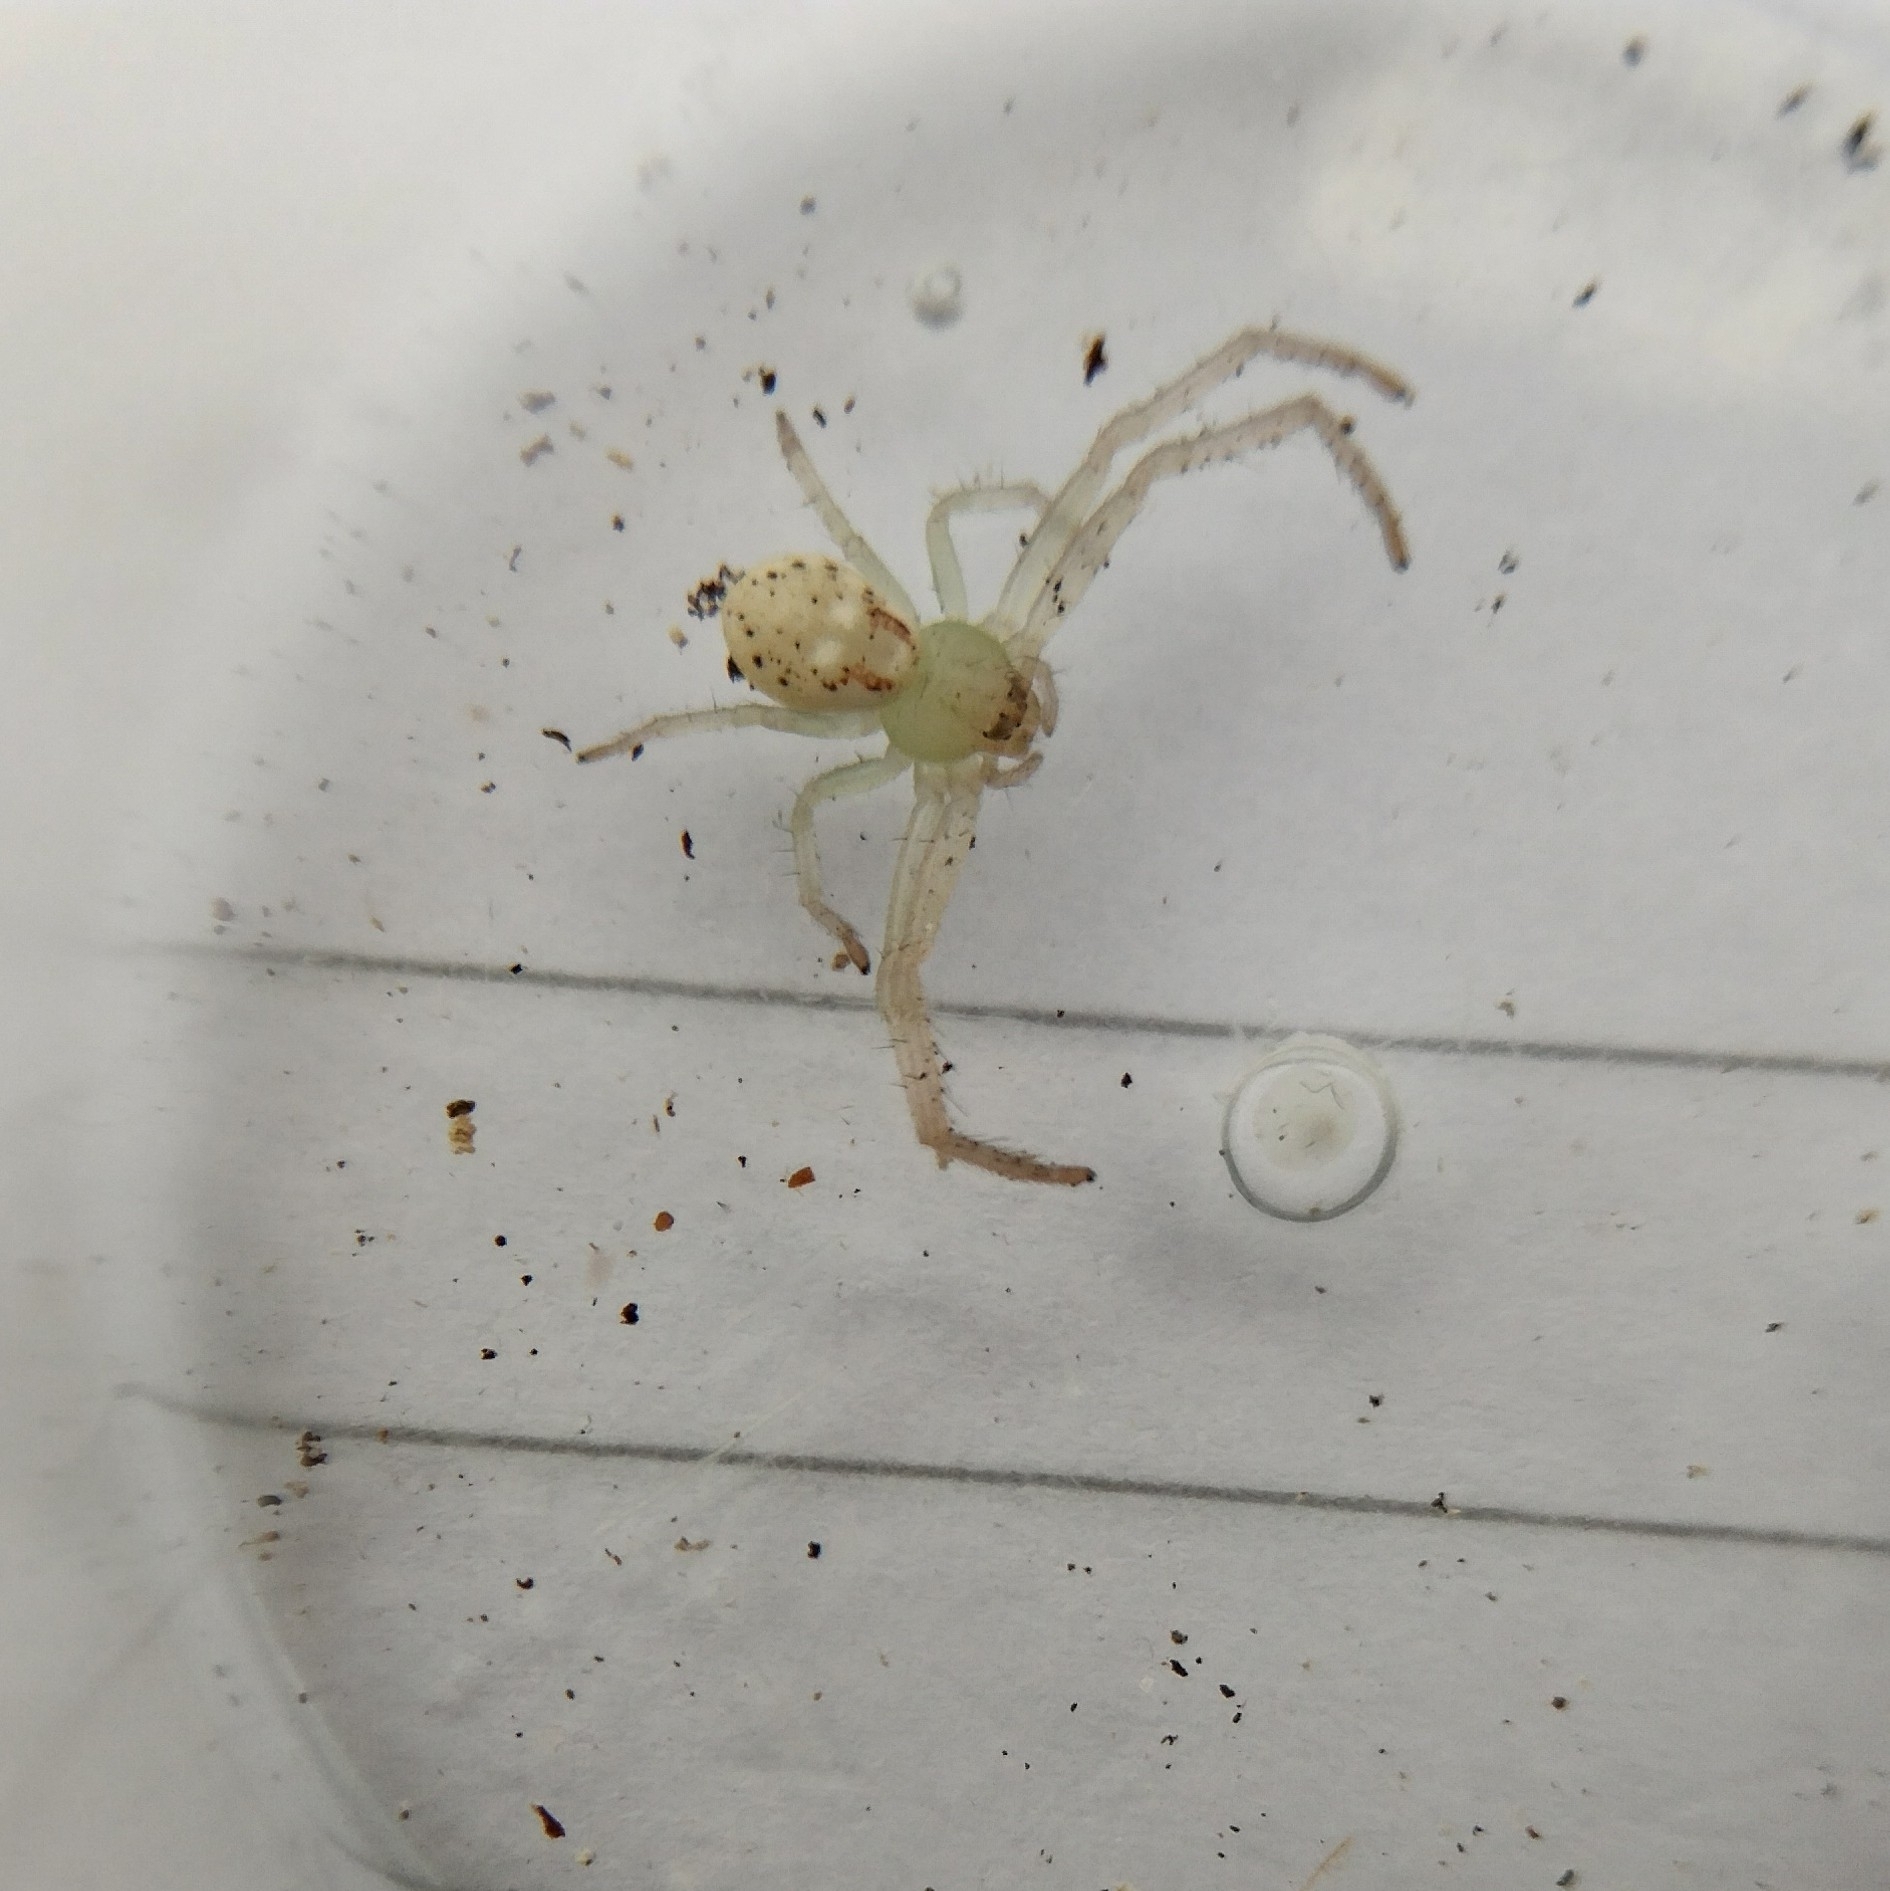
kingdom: Animalia
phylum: Arthropoda
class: Arachnida
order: Araneae
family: Thomisidae
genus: Diaea
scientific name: Diaea livens
